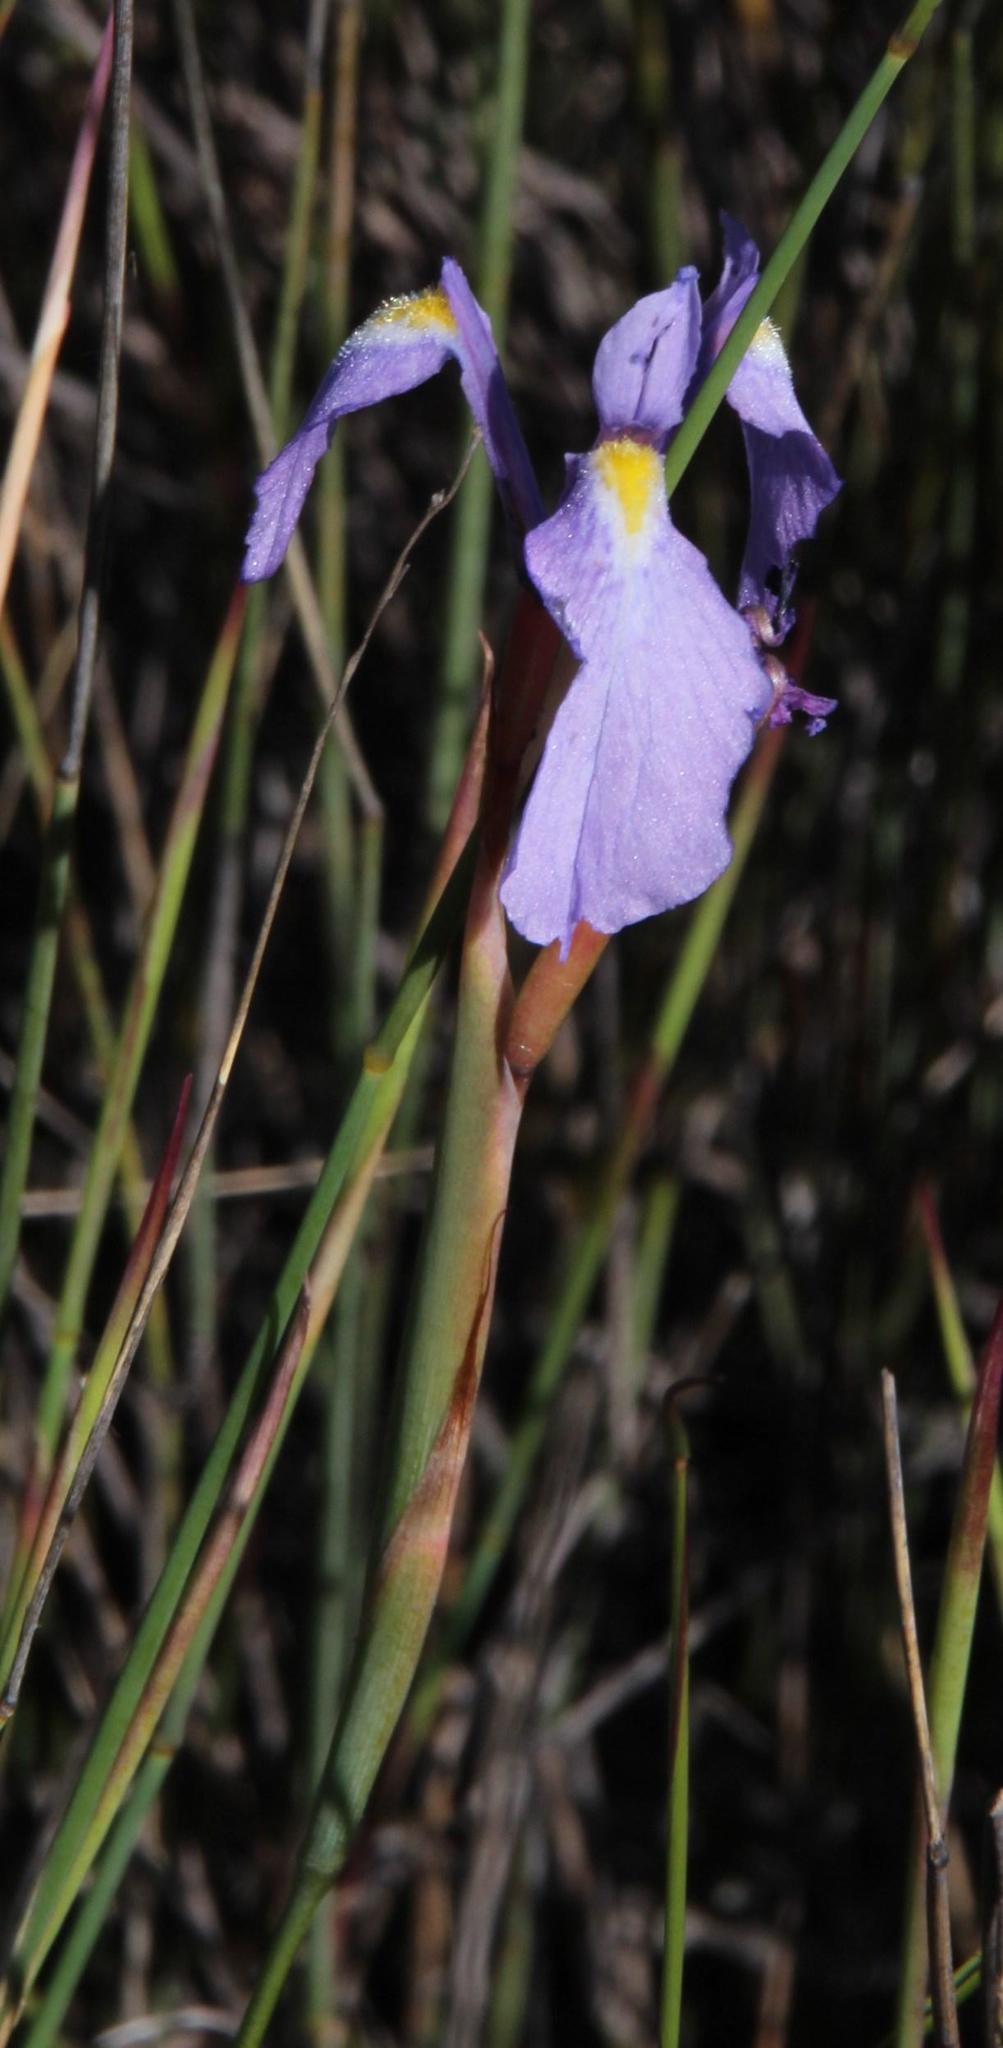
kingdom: Plantae
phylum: Tracheophyta
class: Liliopsida
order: Asparagales
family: Iridaceae
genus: Moraea
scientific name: Moraea tripetala
